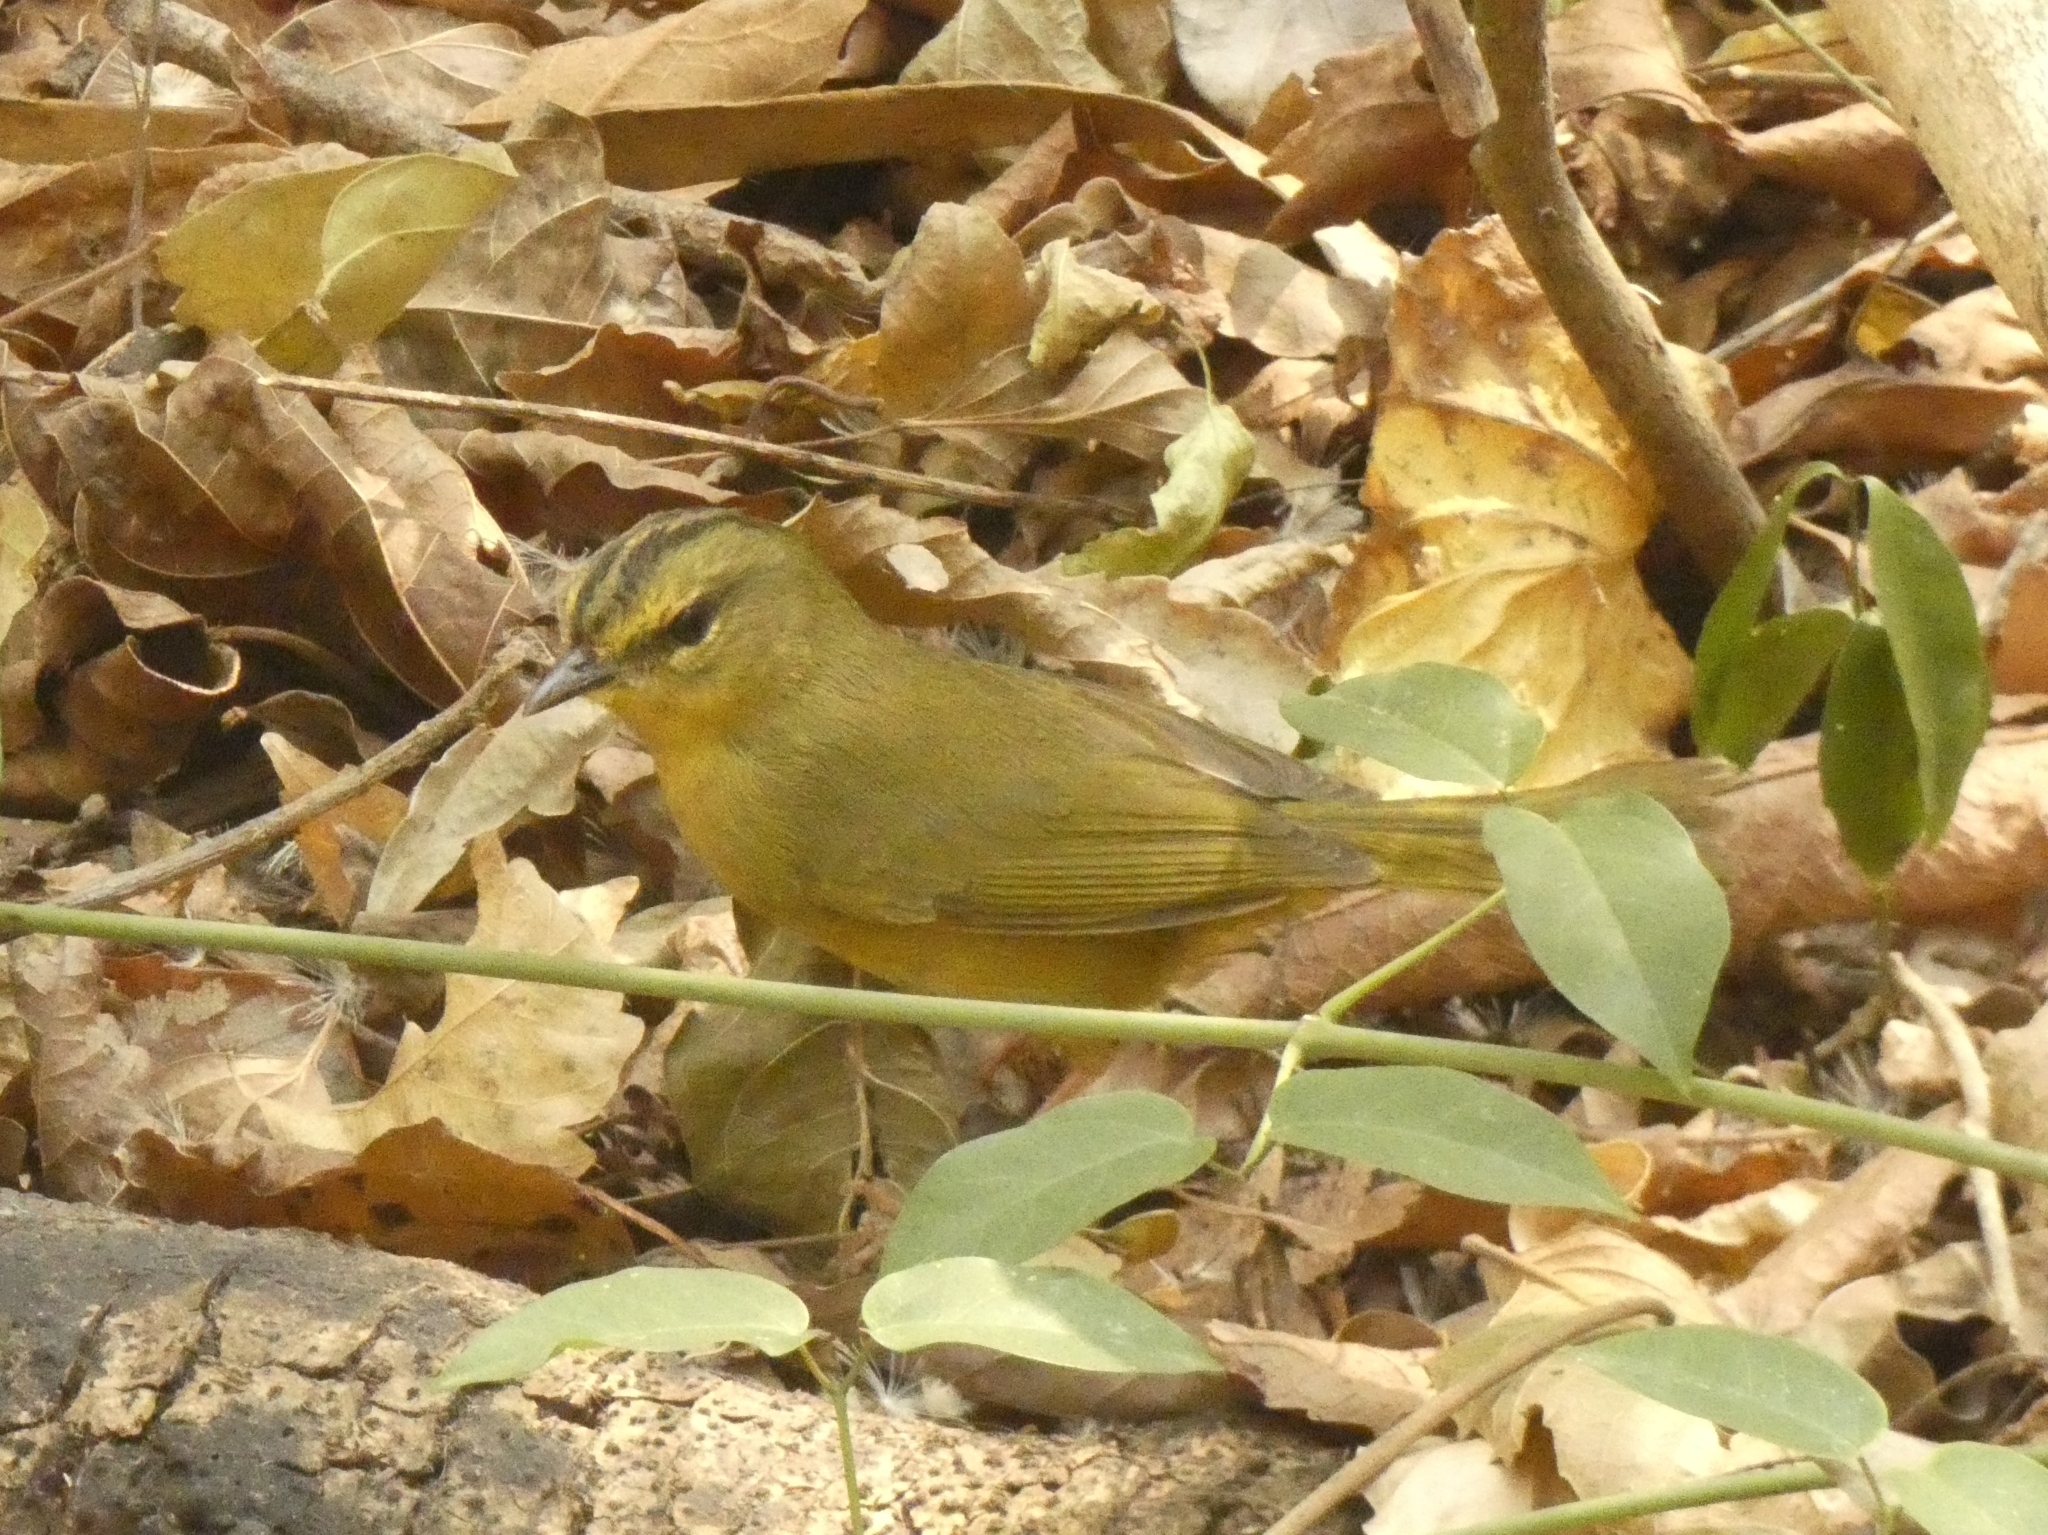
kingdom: Animalia
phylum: Chordata
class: Aves
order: Passeriformes
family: Parulidae
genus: Myiothlypis
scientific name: Myiothlypis bivittata
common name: Two-banded warbler
